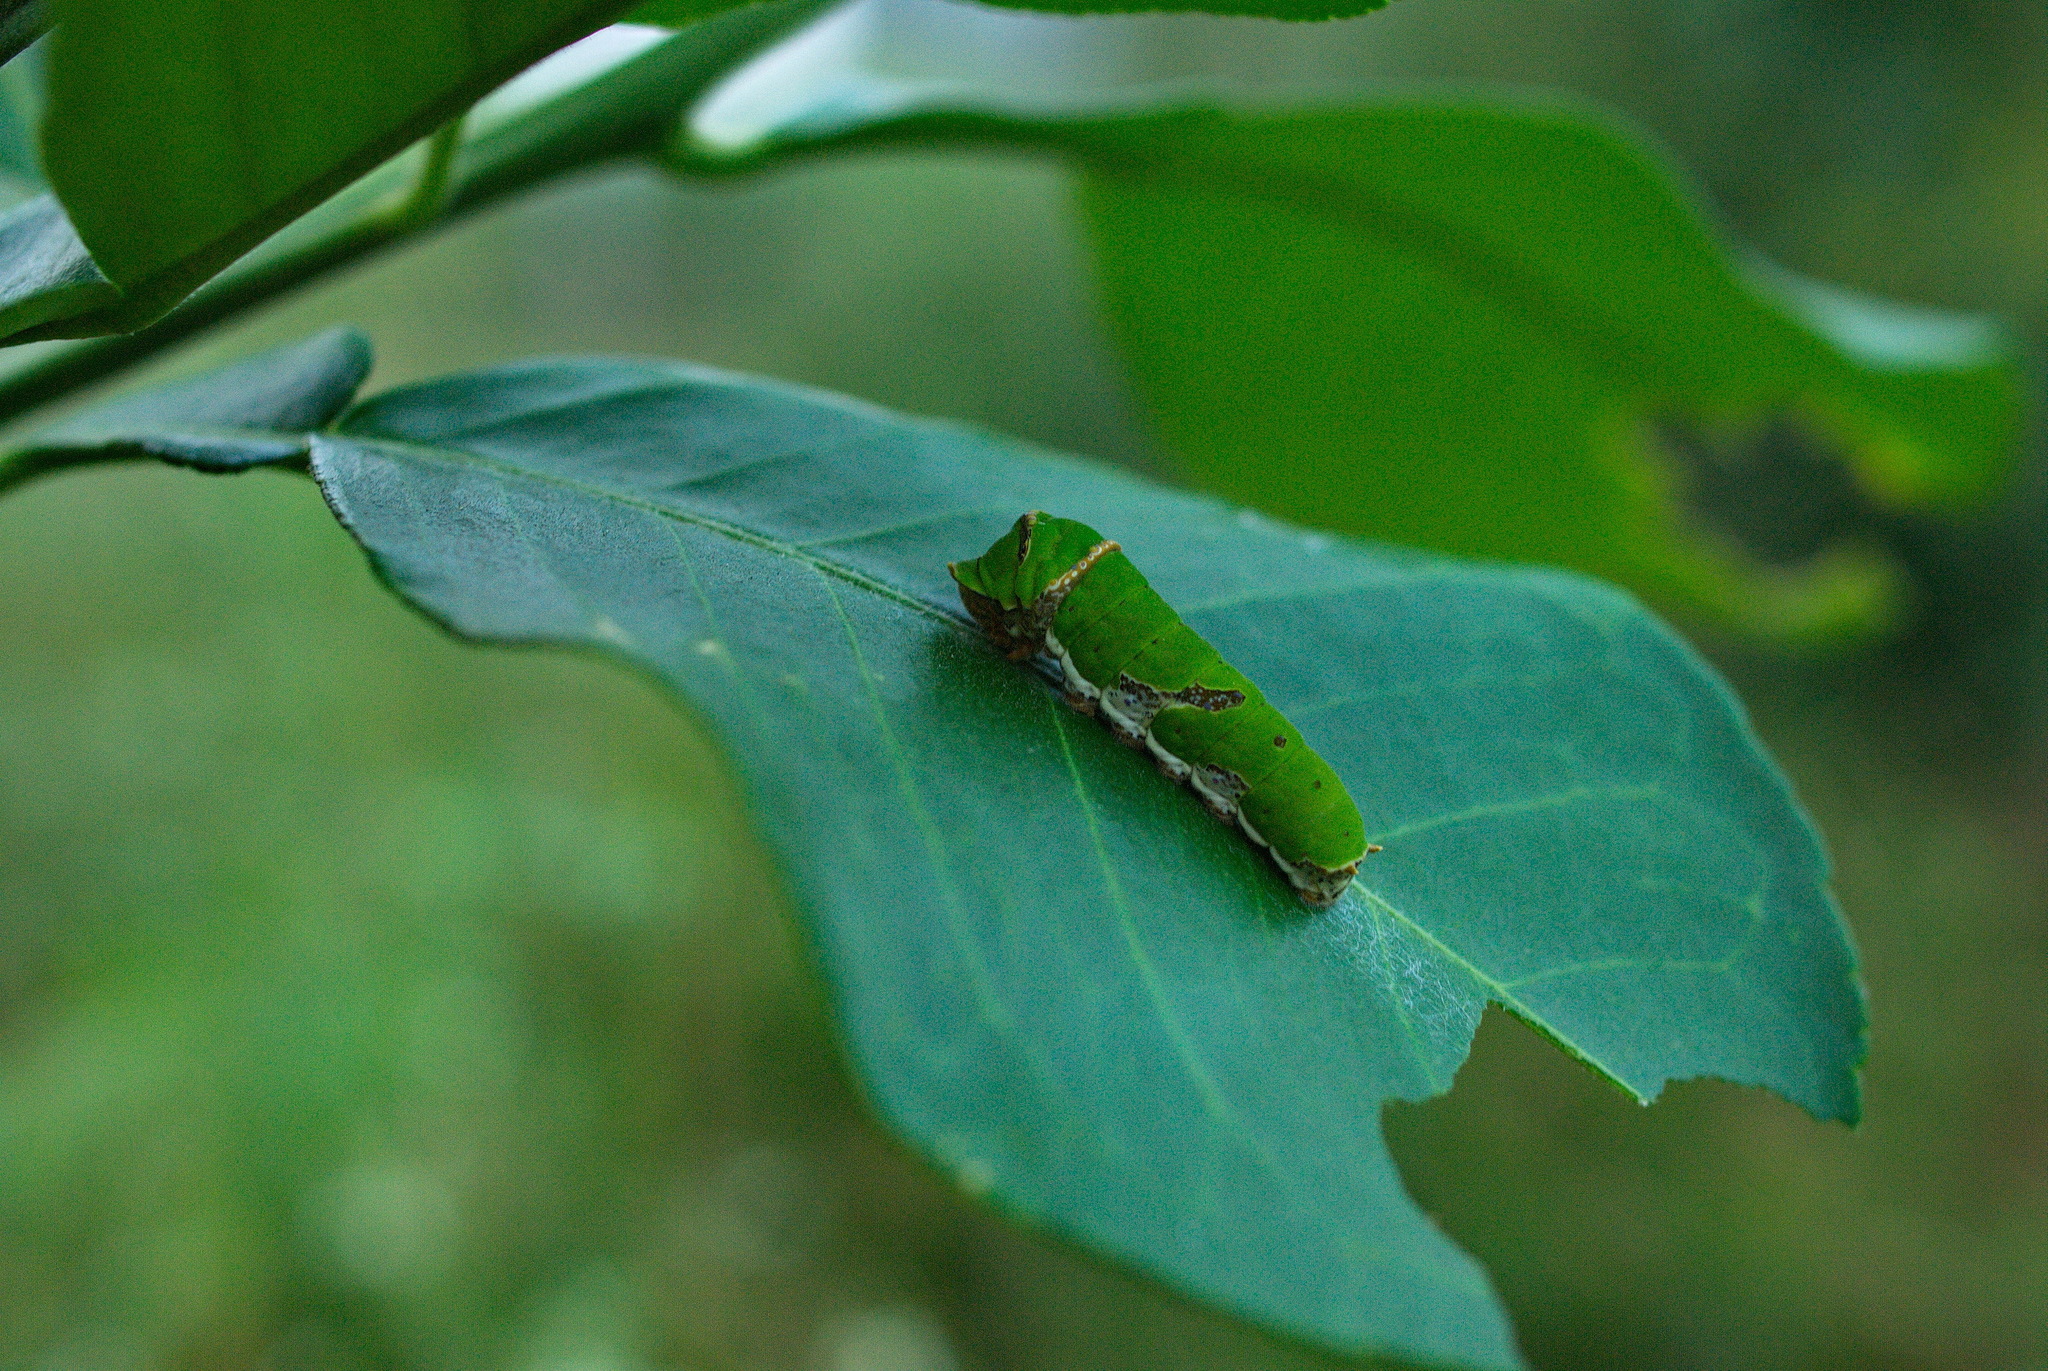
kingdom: Animalia
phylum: Arthropoda
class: Insecta
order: Lepidoptera
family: Papilionidae
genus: Papilio
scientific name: Papilio demoleus
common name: Lime butterfly
